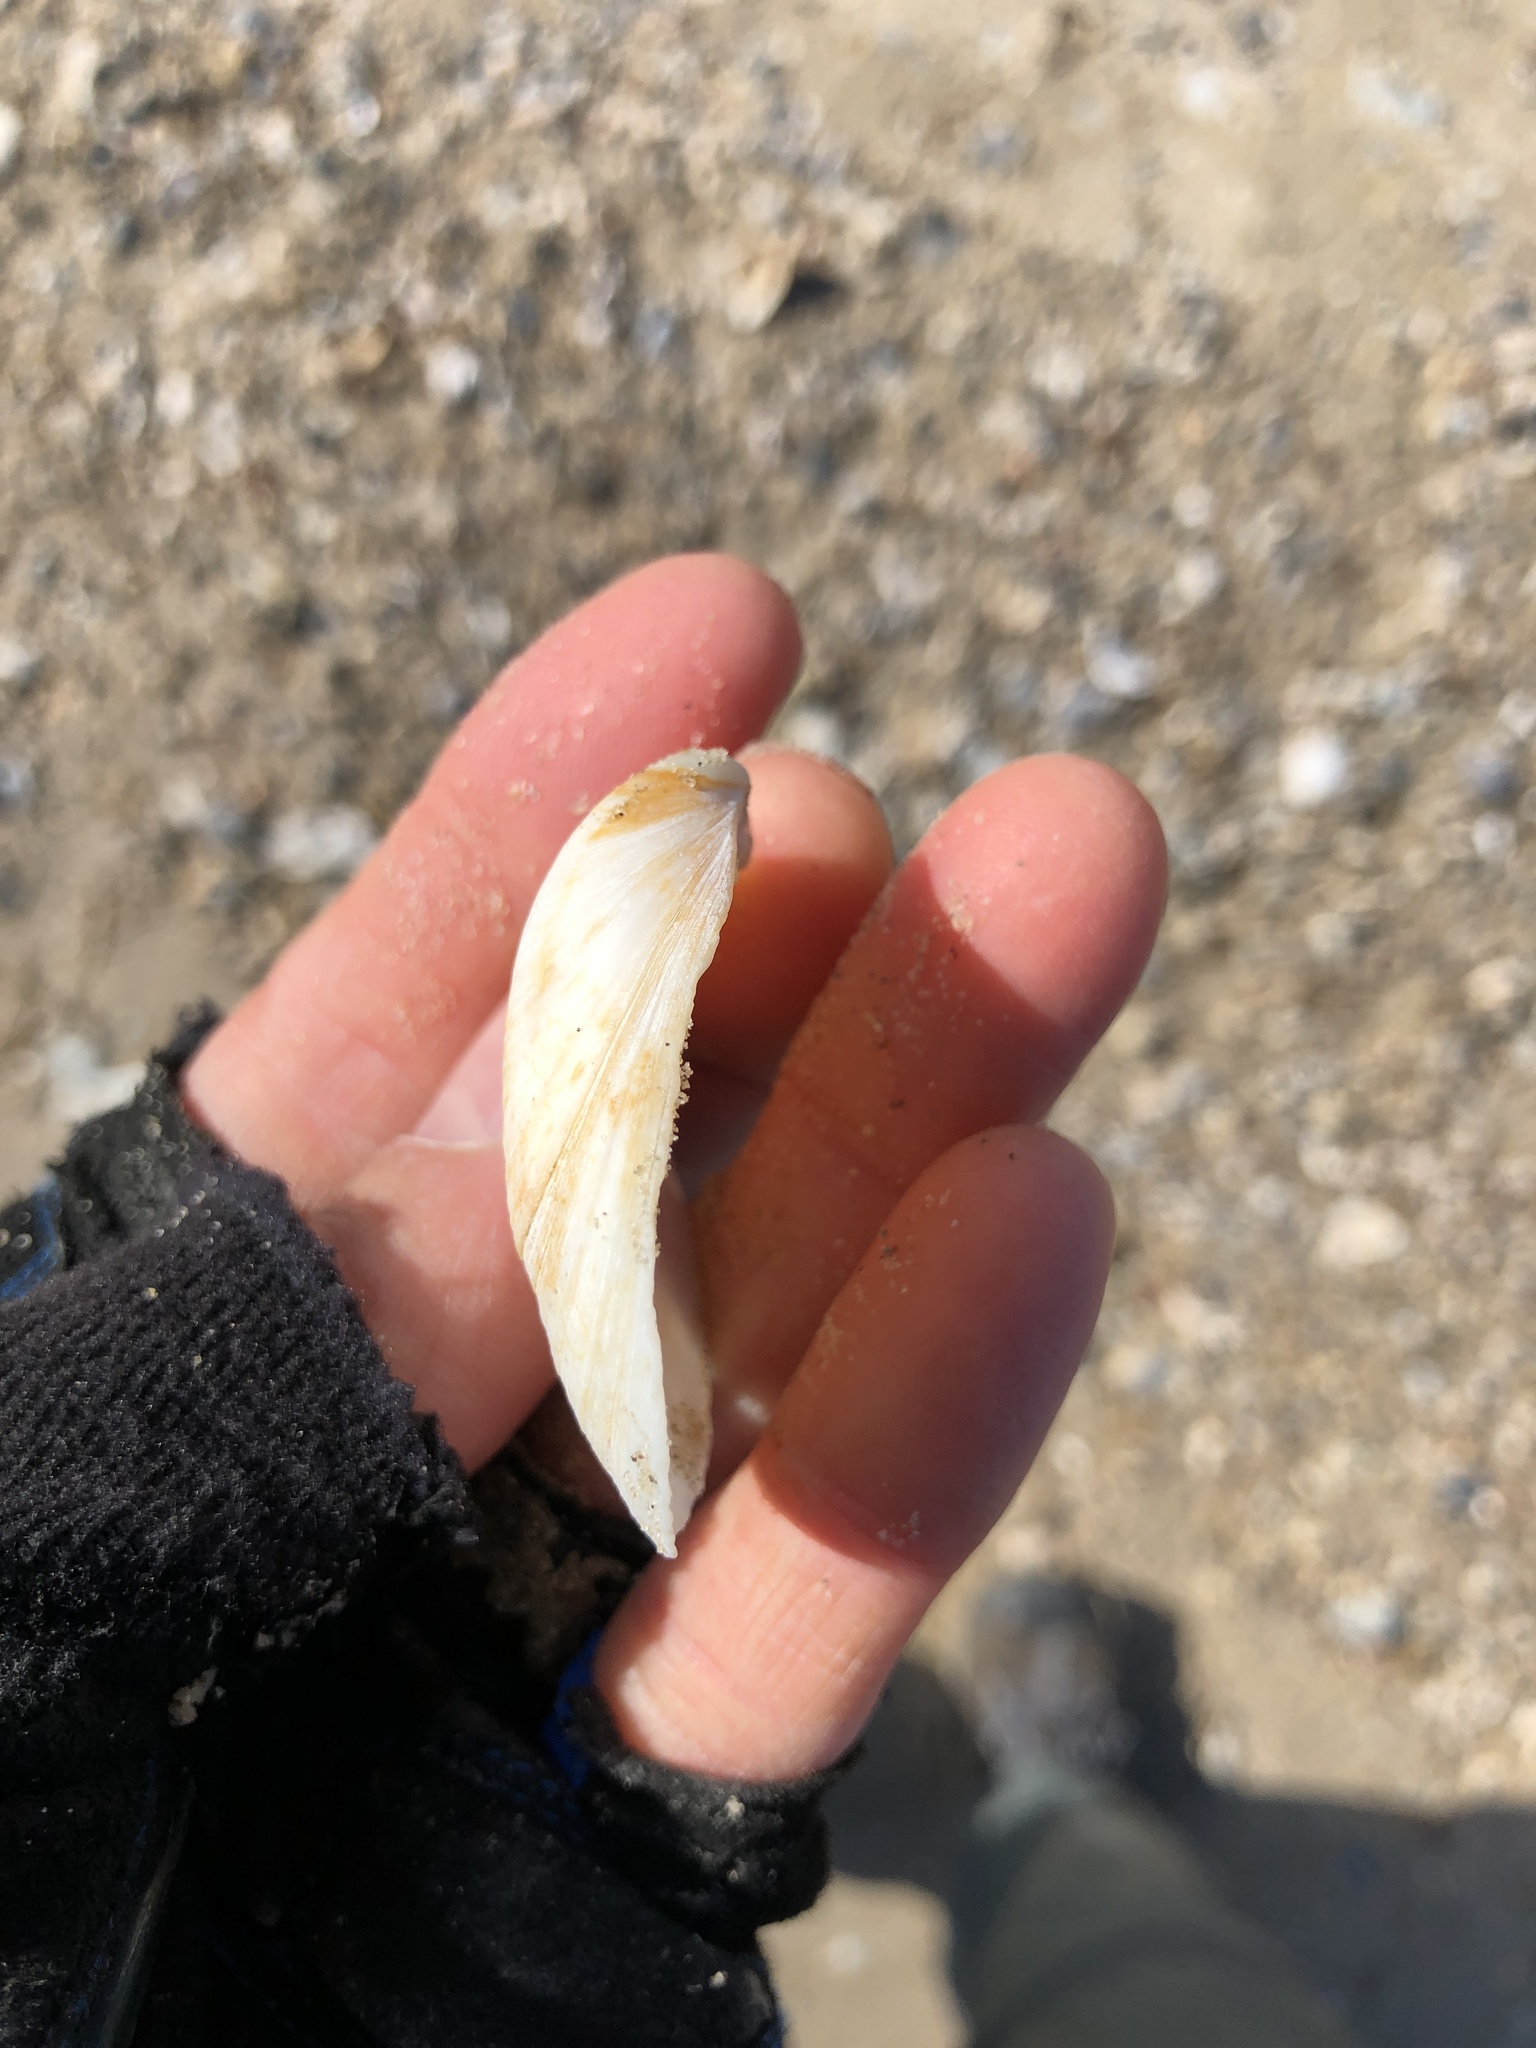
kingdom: Animalia
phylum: Mollusca
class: Bivalvia
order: Cardiida
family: Tellinidae
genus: Austromacoma
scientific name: Austromacoma constricta
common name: Constricted macoma
